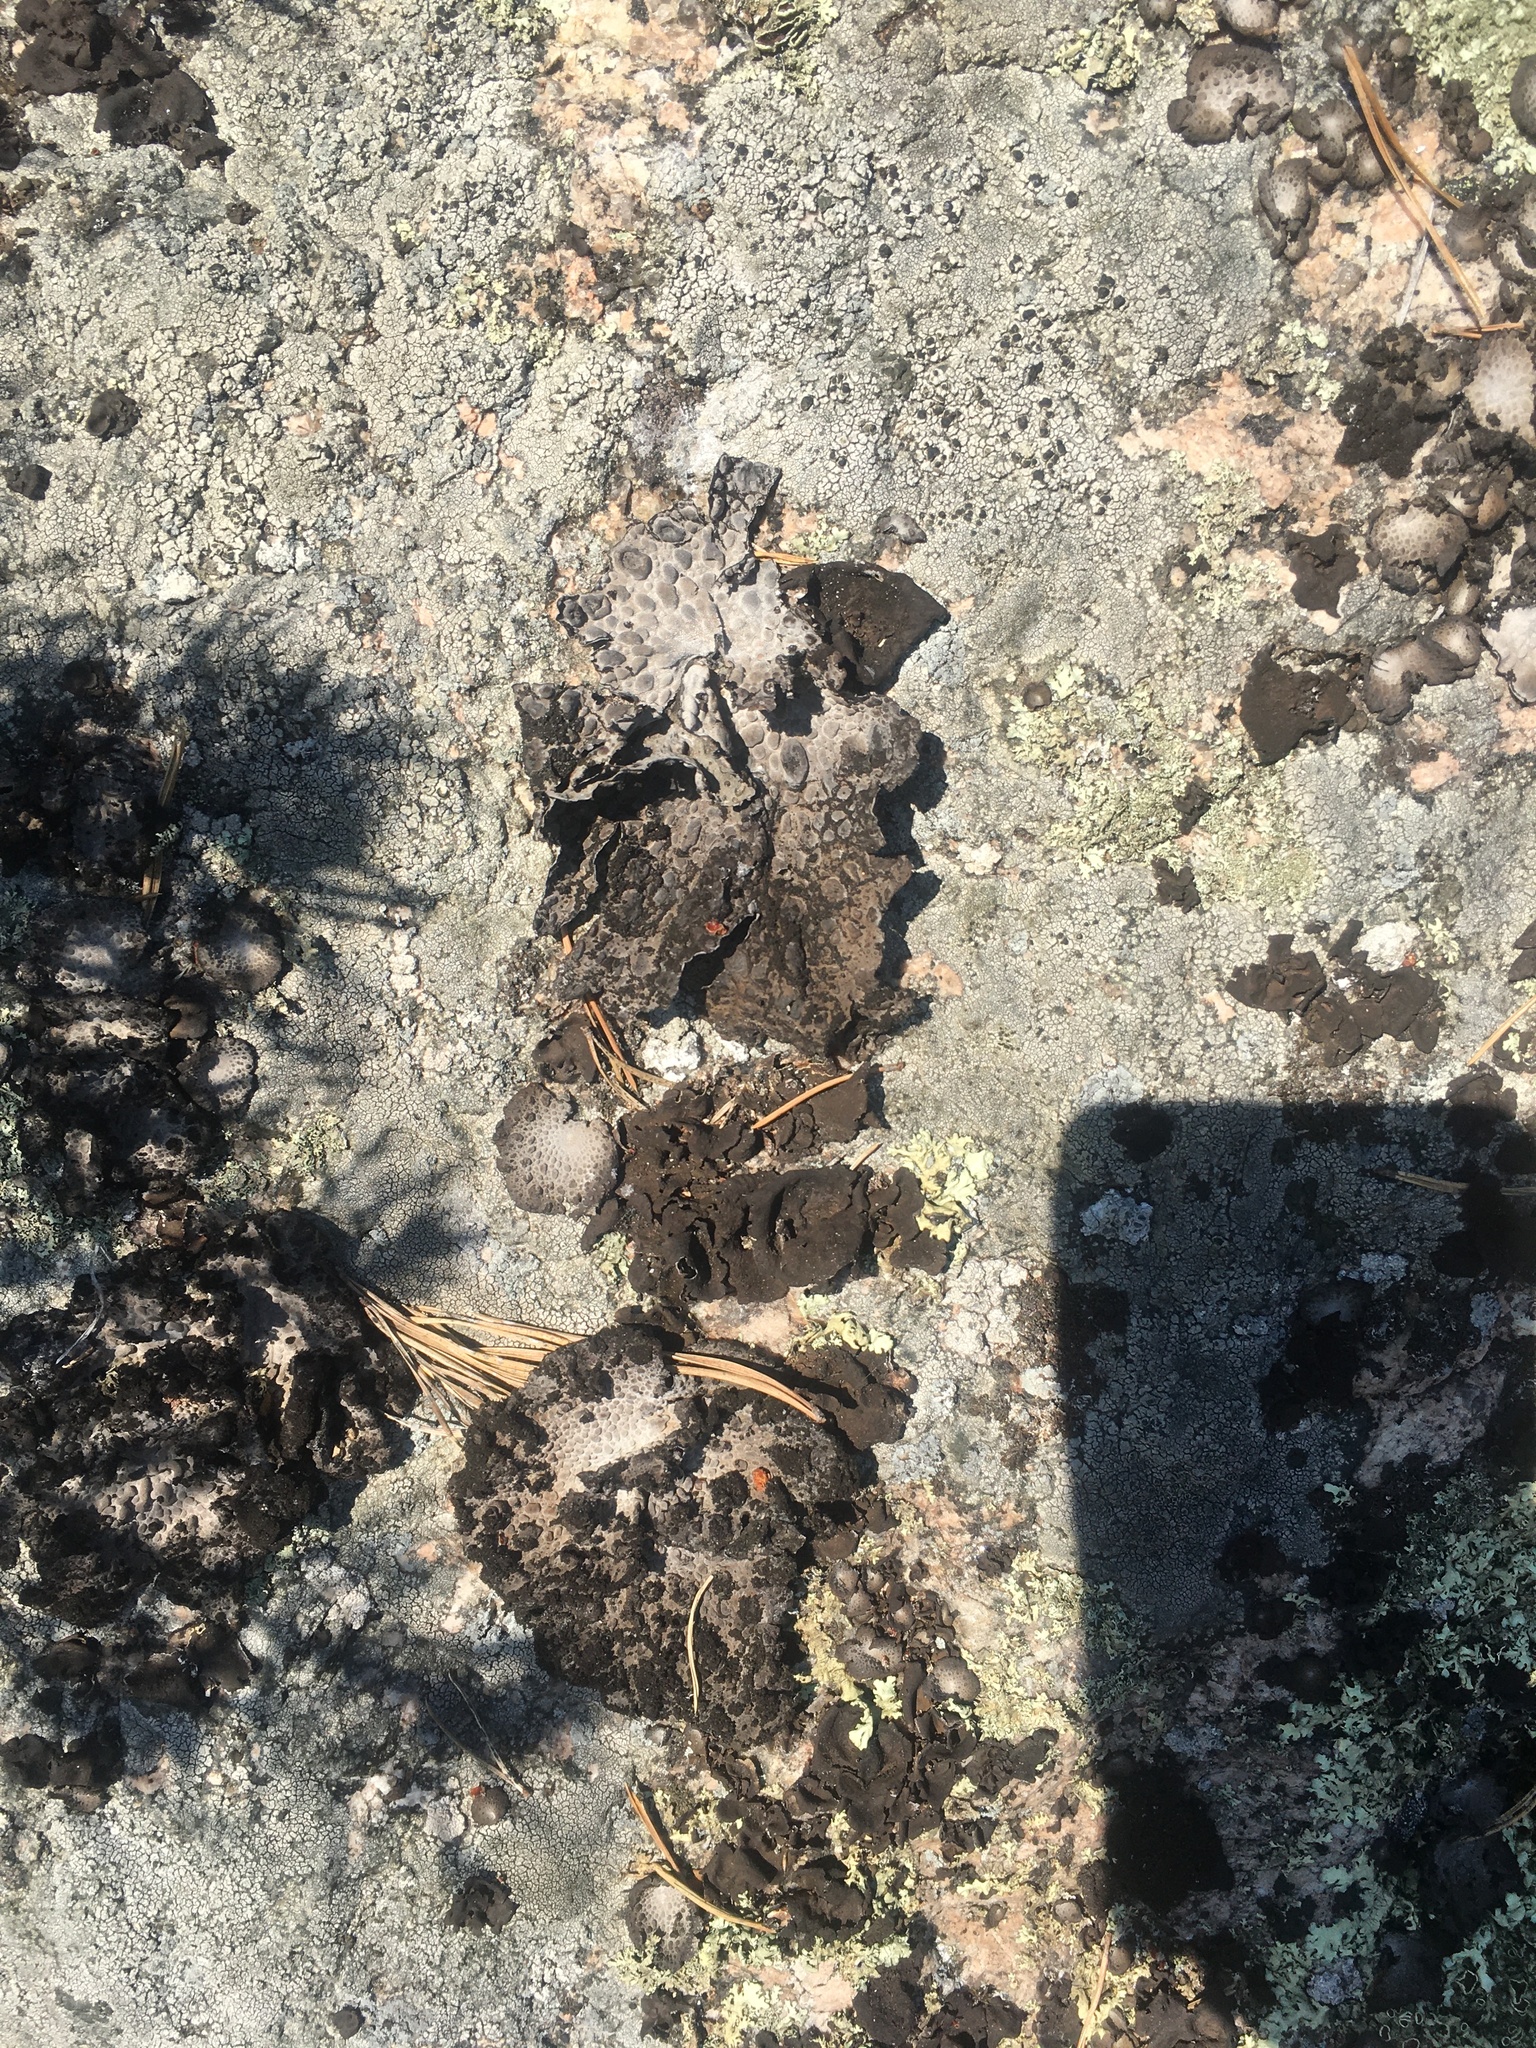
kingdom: Fungi
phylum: Ascomycota
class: Lecanoromycetes
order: Umbilicariales
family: Umbilicariaceae
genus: Lasallia
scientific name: Lasallia pustulata
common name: Blistered toadskin lichen
